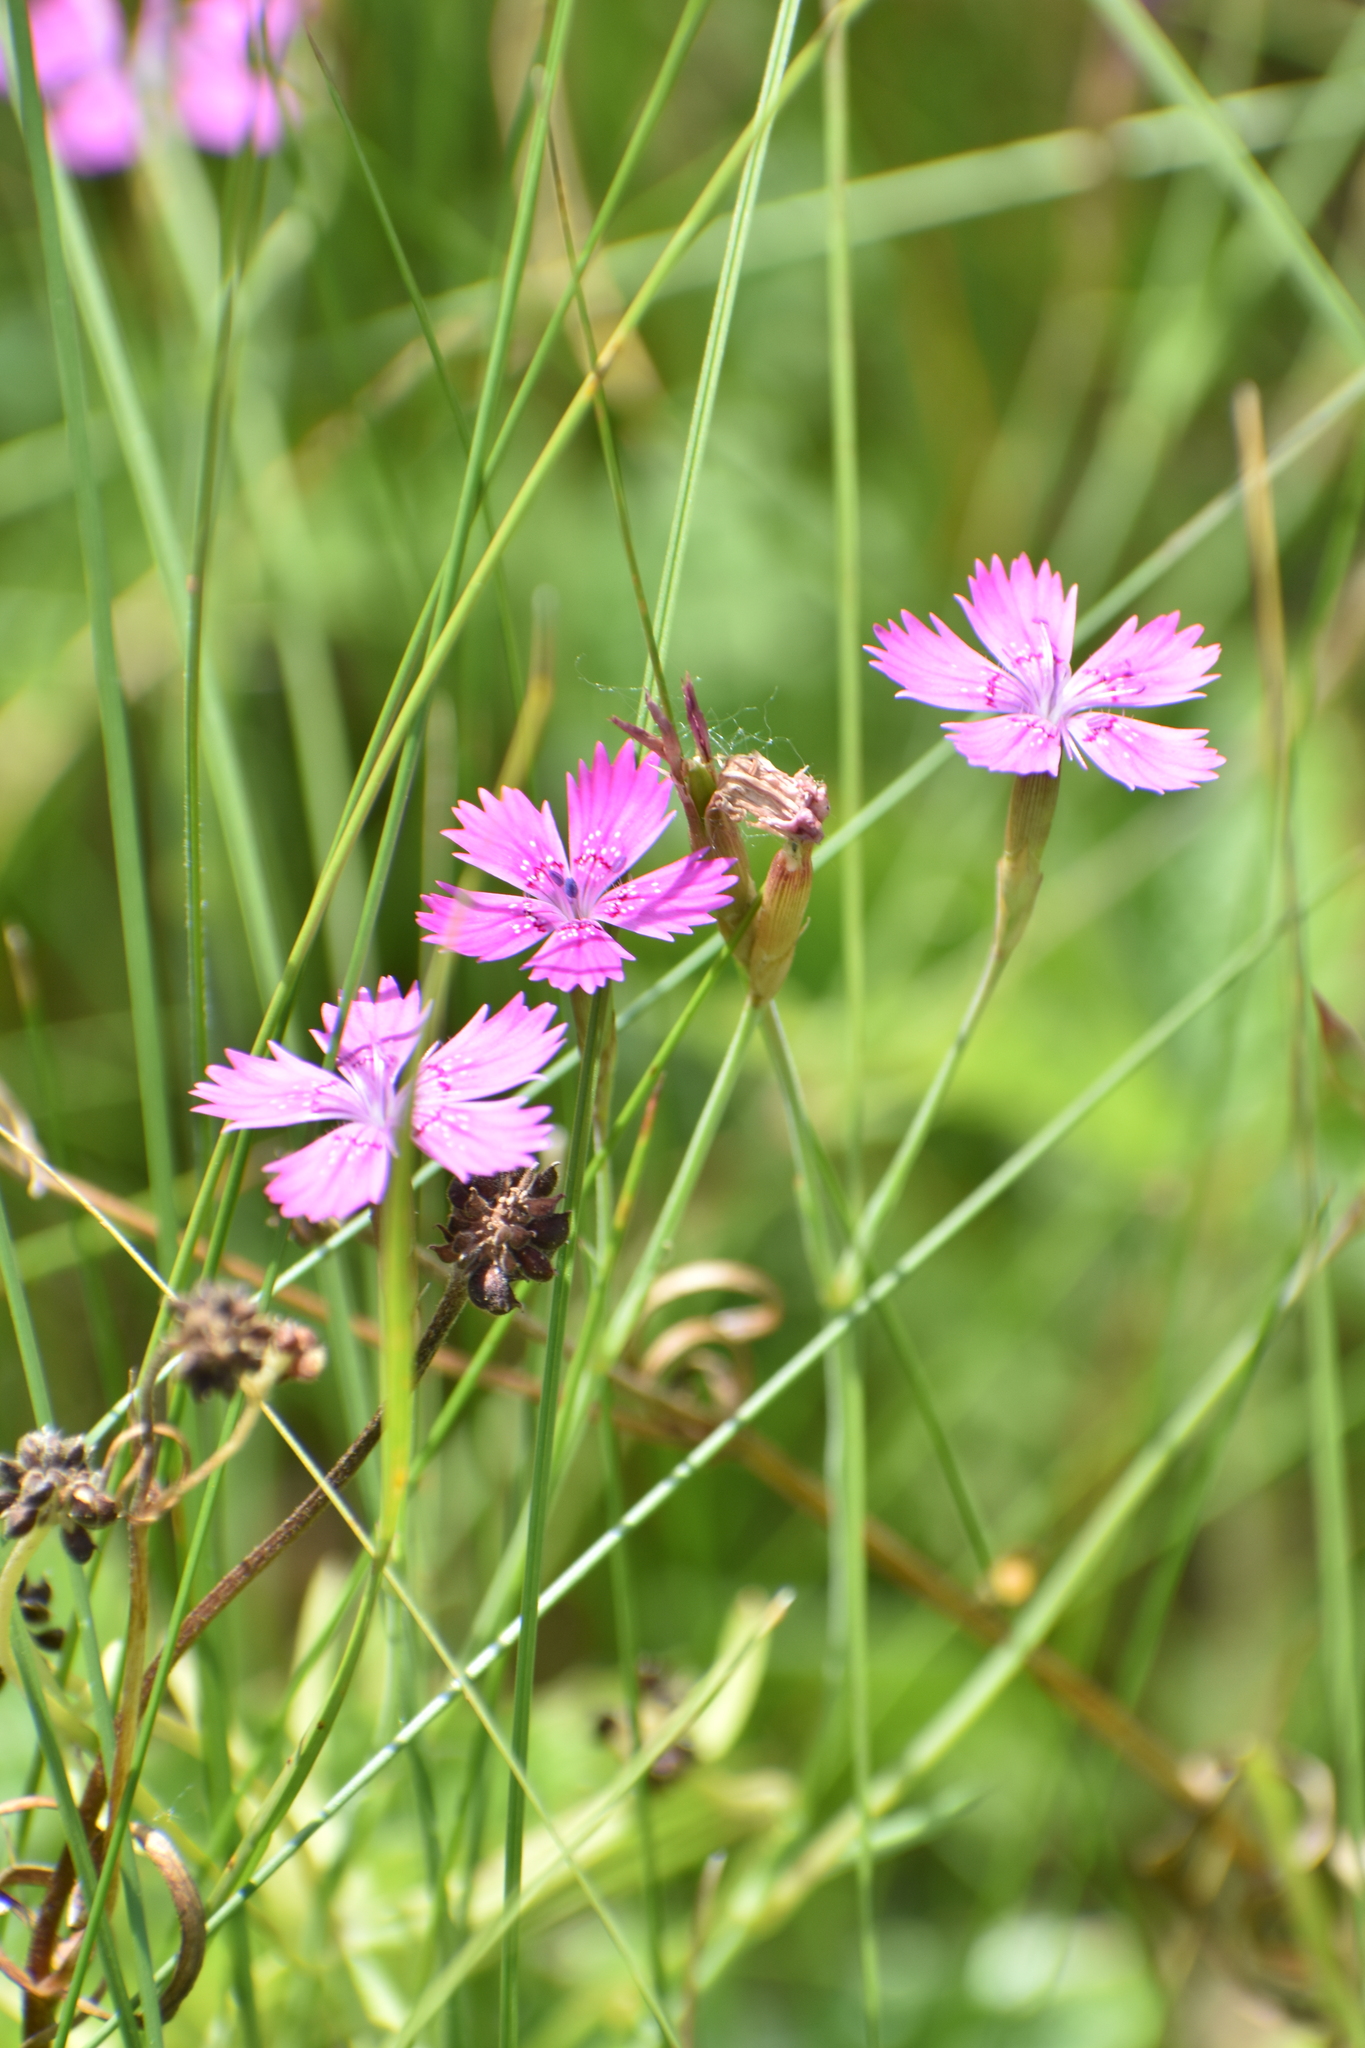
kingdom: Plantae
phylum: Tracheophyta
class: Magnoliopsida
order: Caryophyllales
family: Caryophyllaceae
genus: Dianthus
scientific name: Dianthus deltoides
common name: Maiden pink
